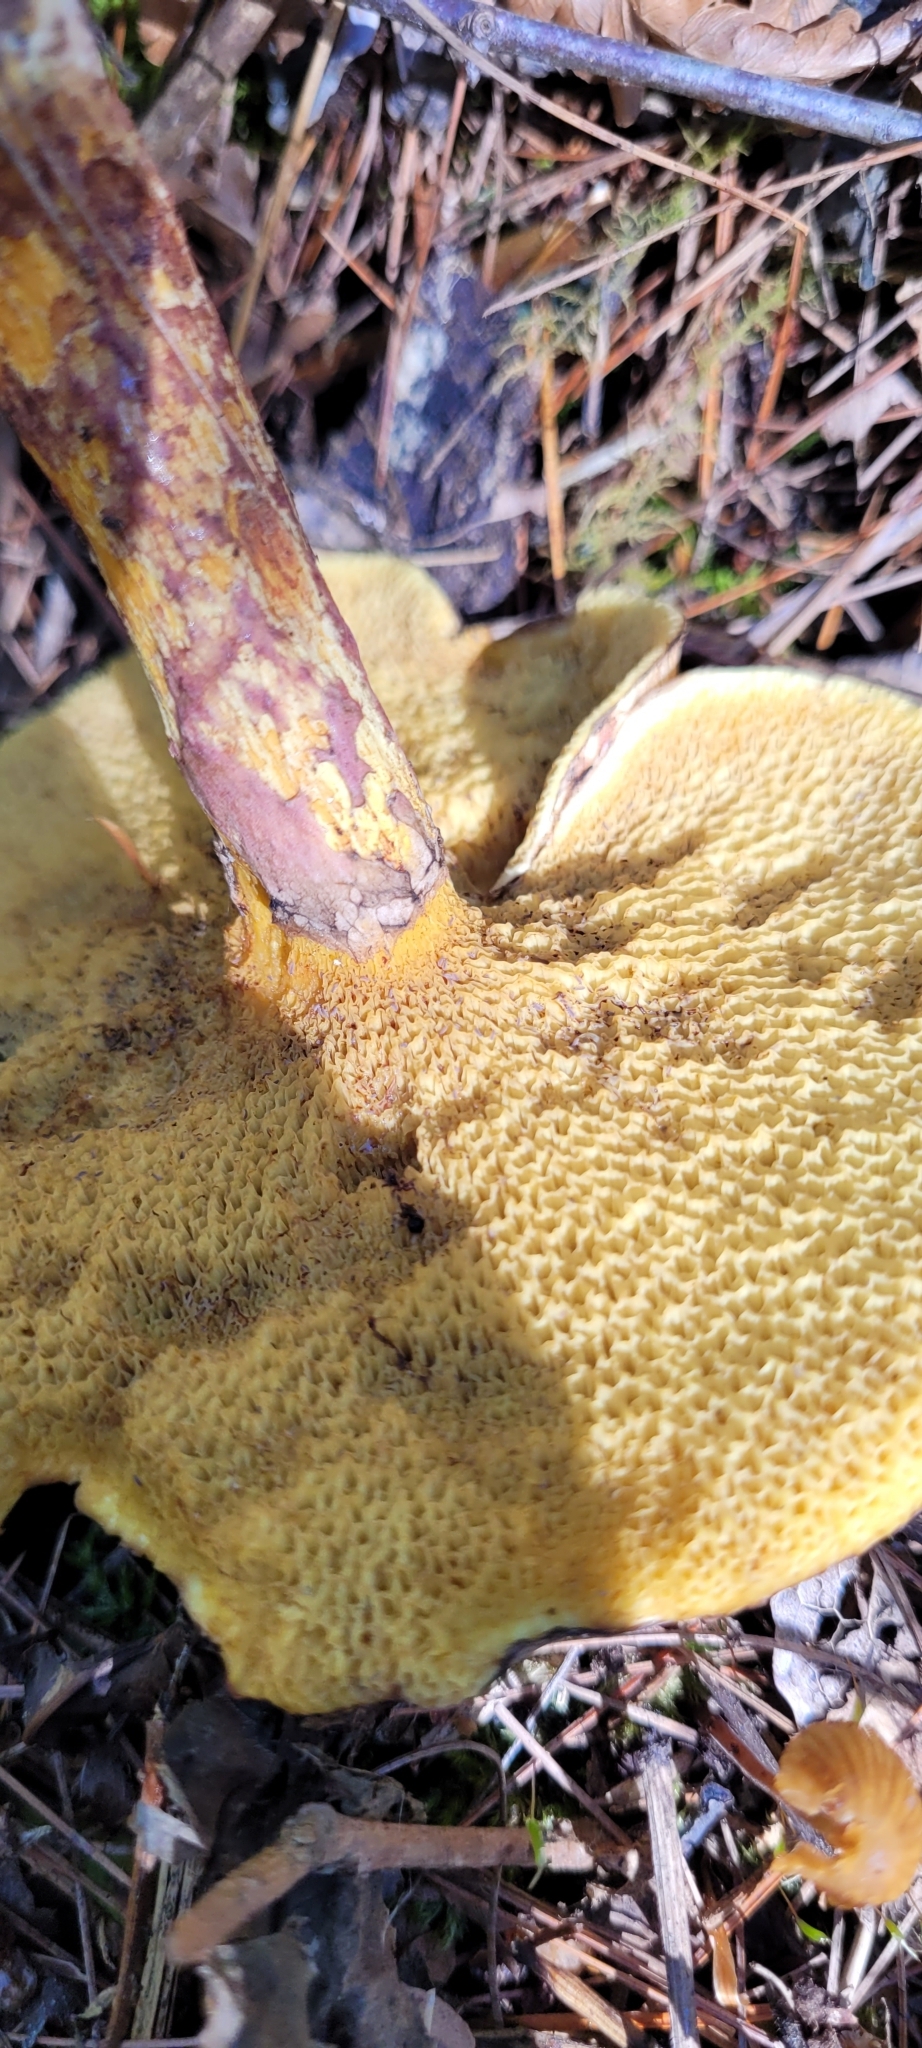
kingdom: Fungi
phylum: Basidiomycota
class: Agaricomycetes
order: Boletales
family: Suillaceae
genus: Suillus
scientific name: Suillus spraguei
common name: Painted suillus
